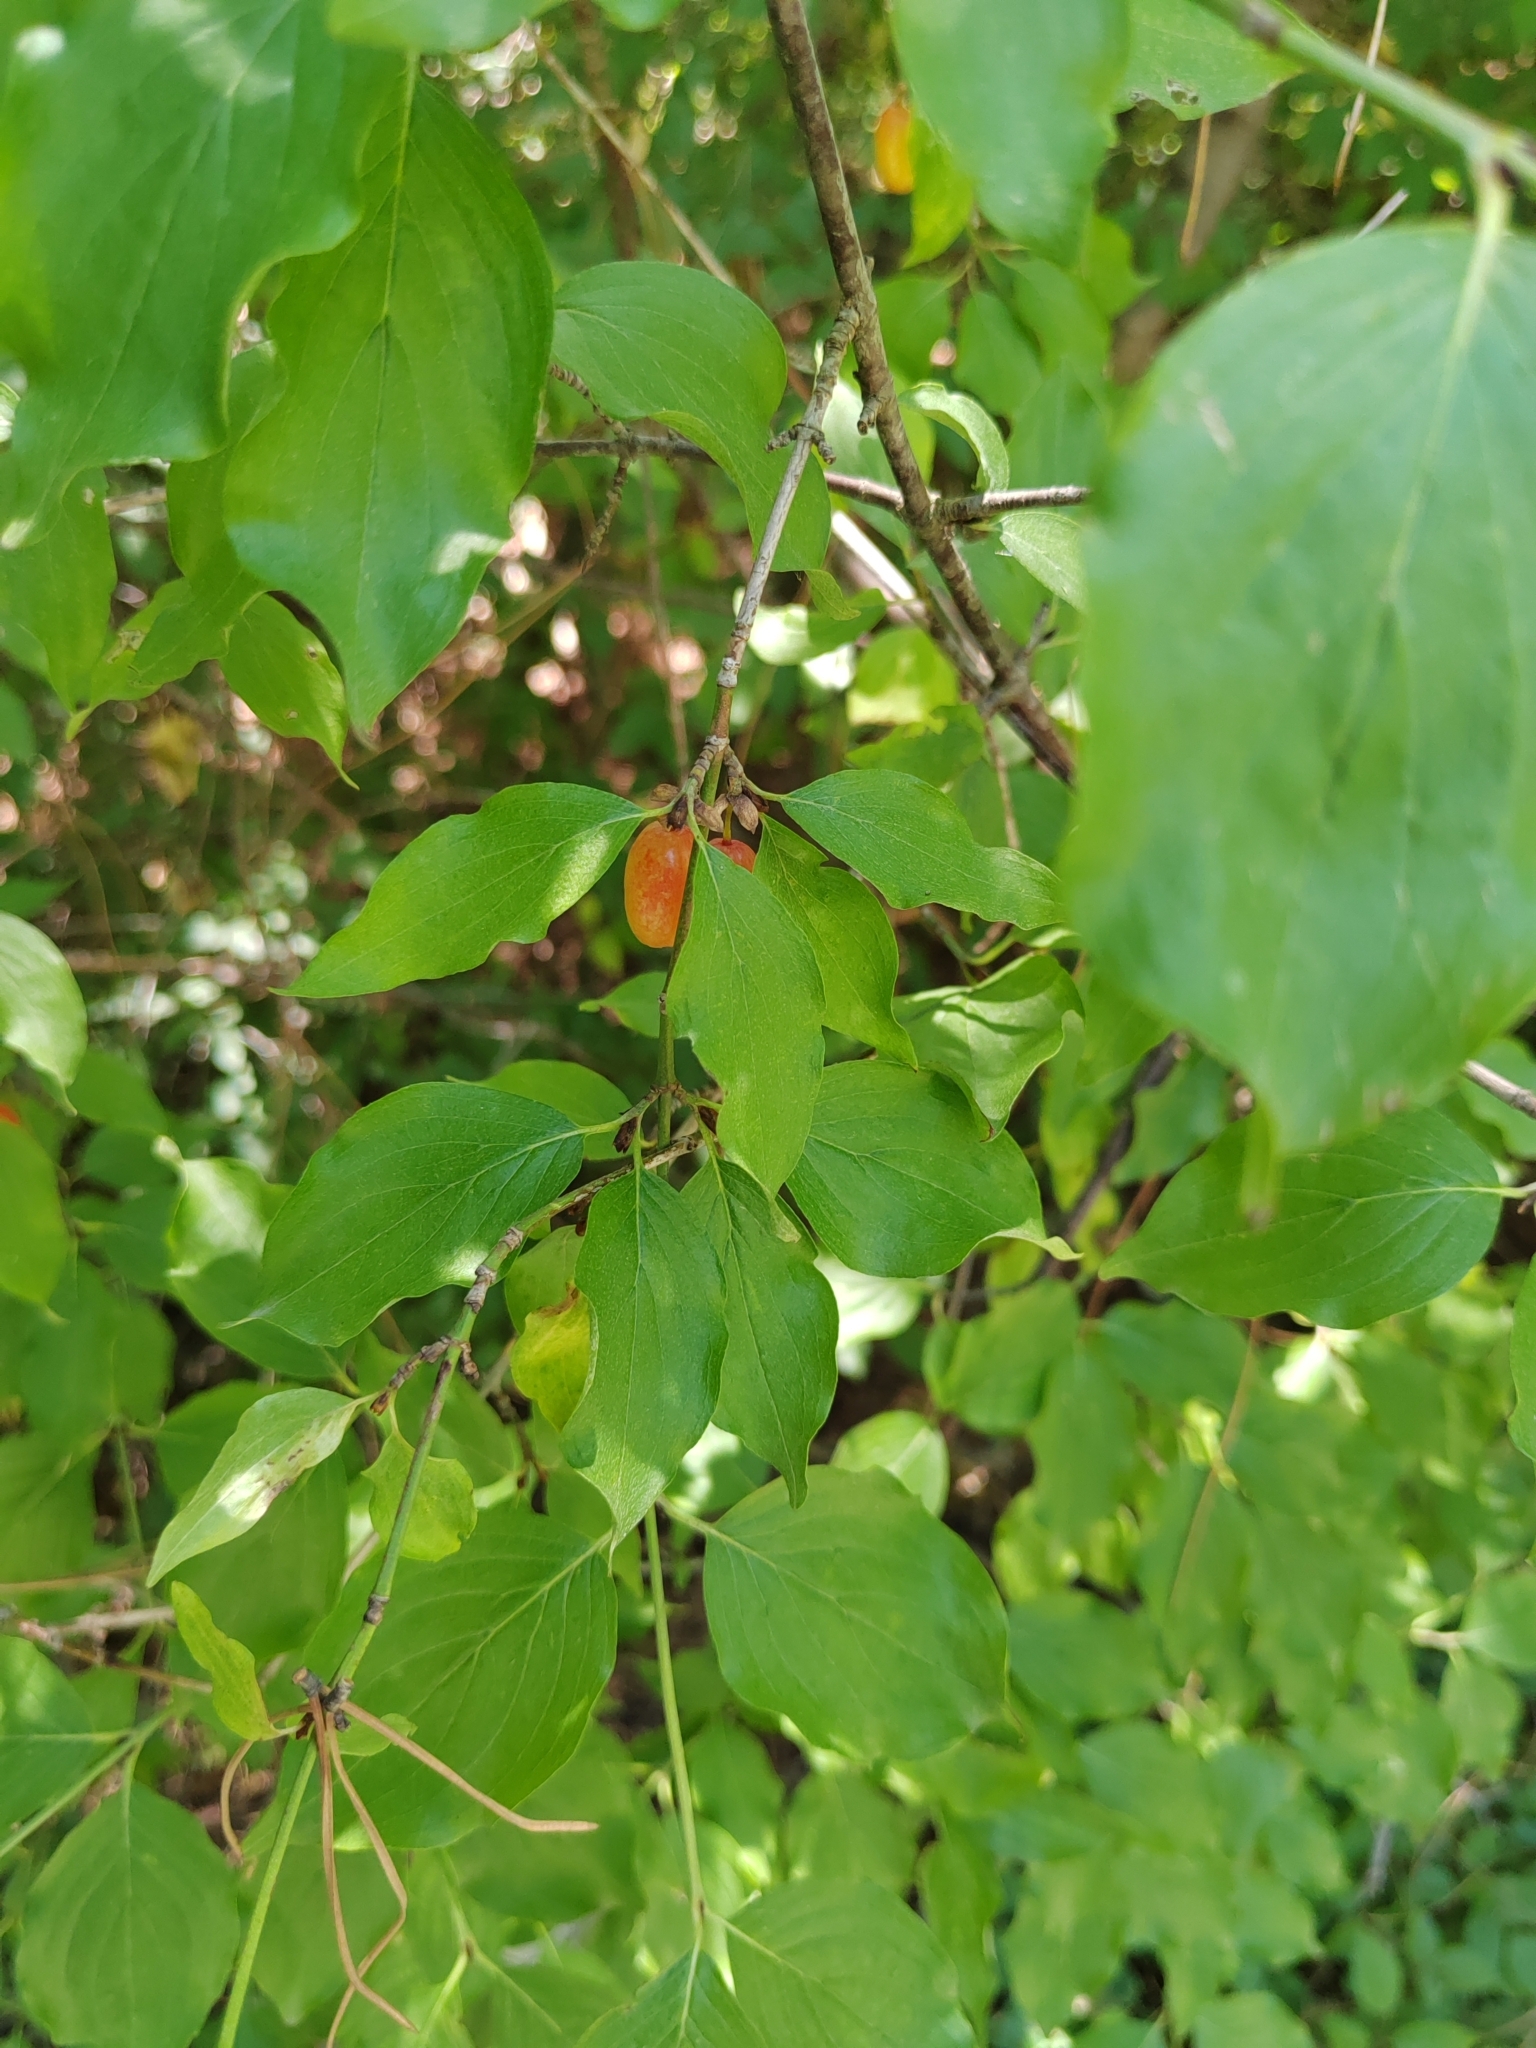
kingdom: Plantae
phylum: Tracheophyta
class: Magnoliopsida
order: Cornales
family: Cornaceae
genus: Cornus
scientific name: Cornus mas
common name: Cornelian-cherry
